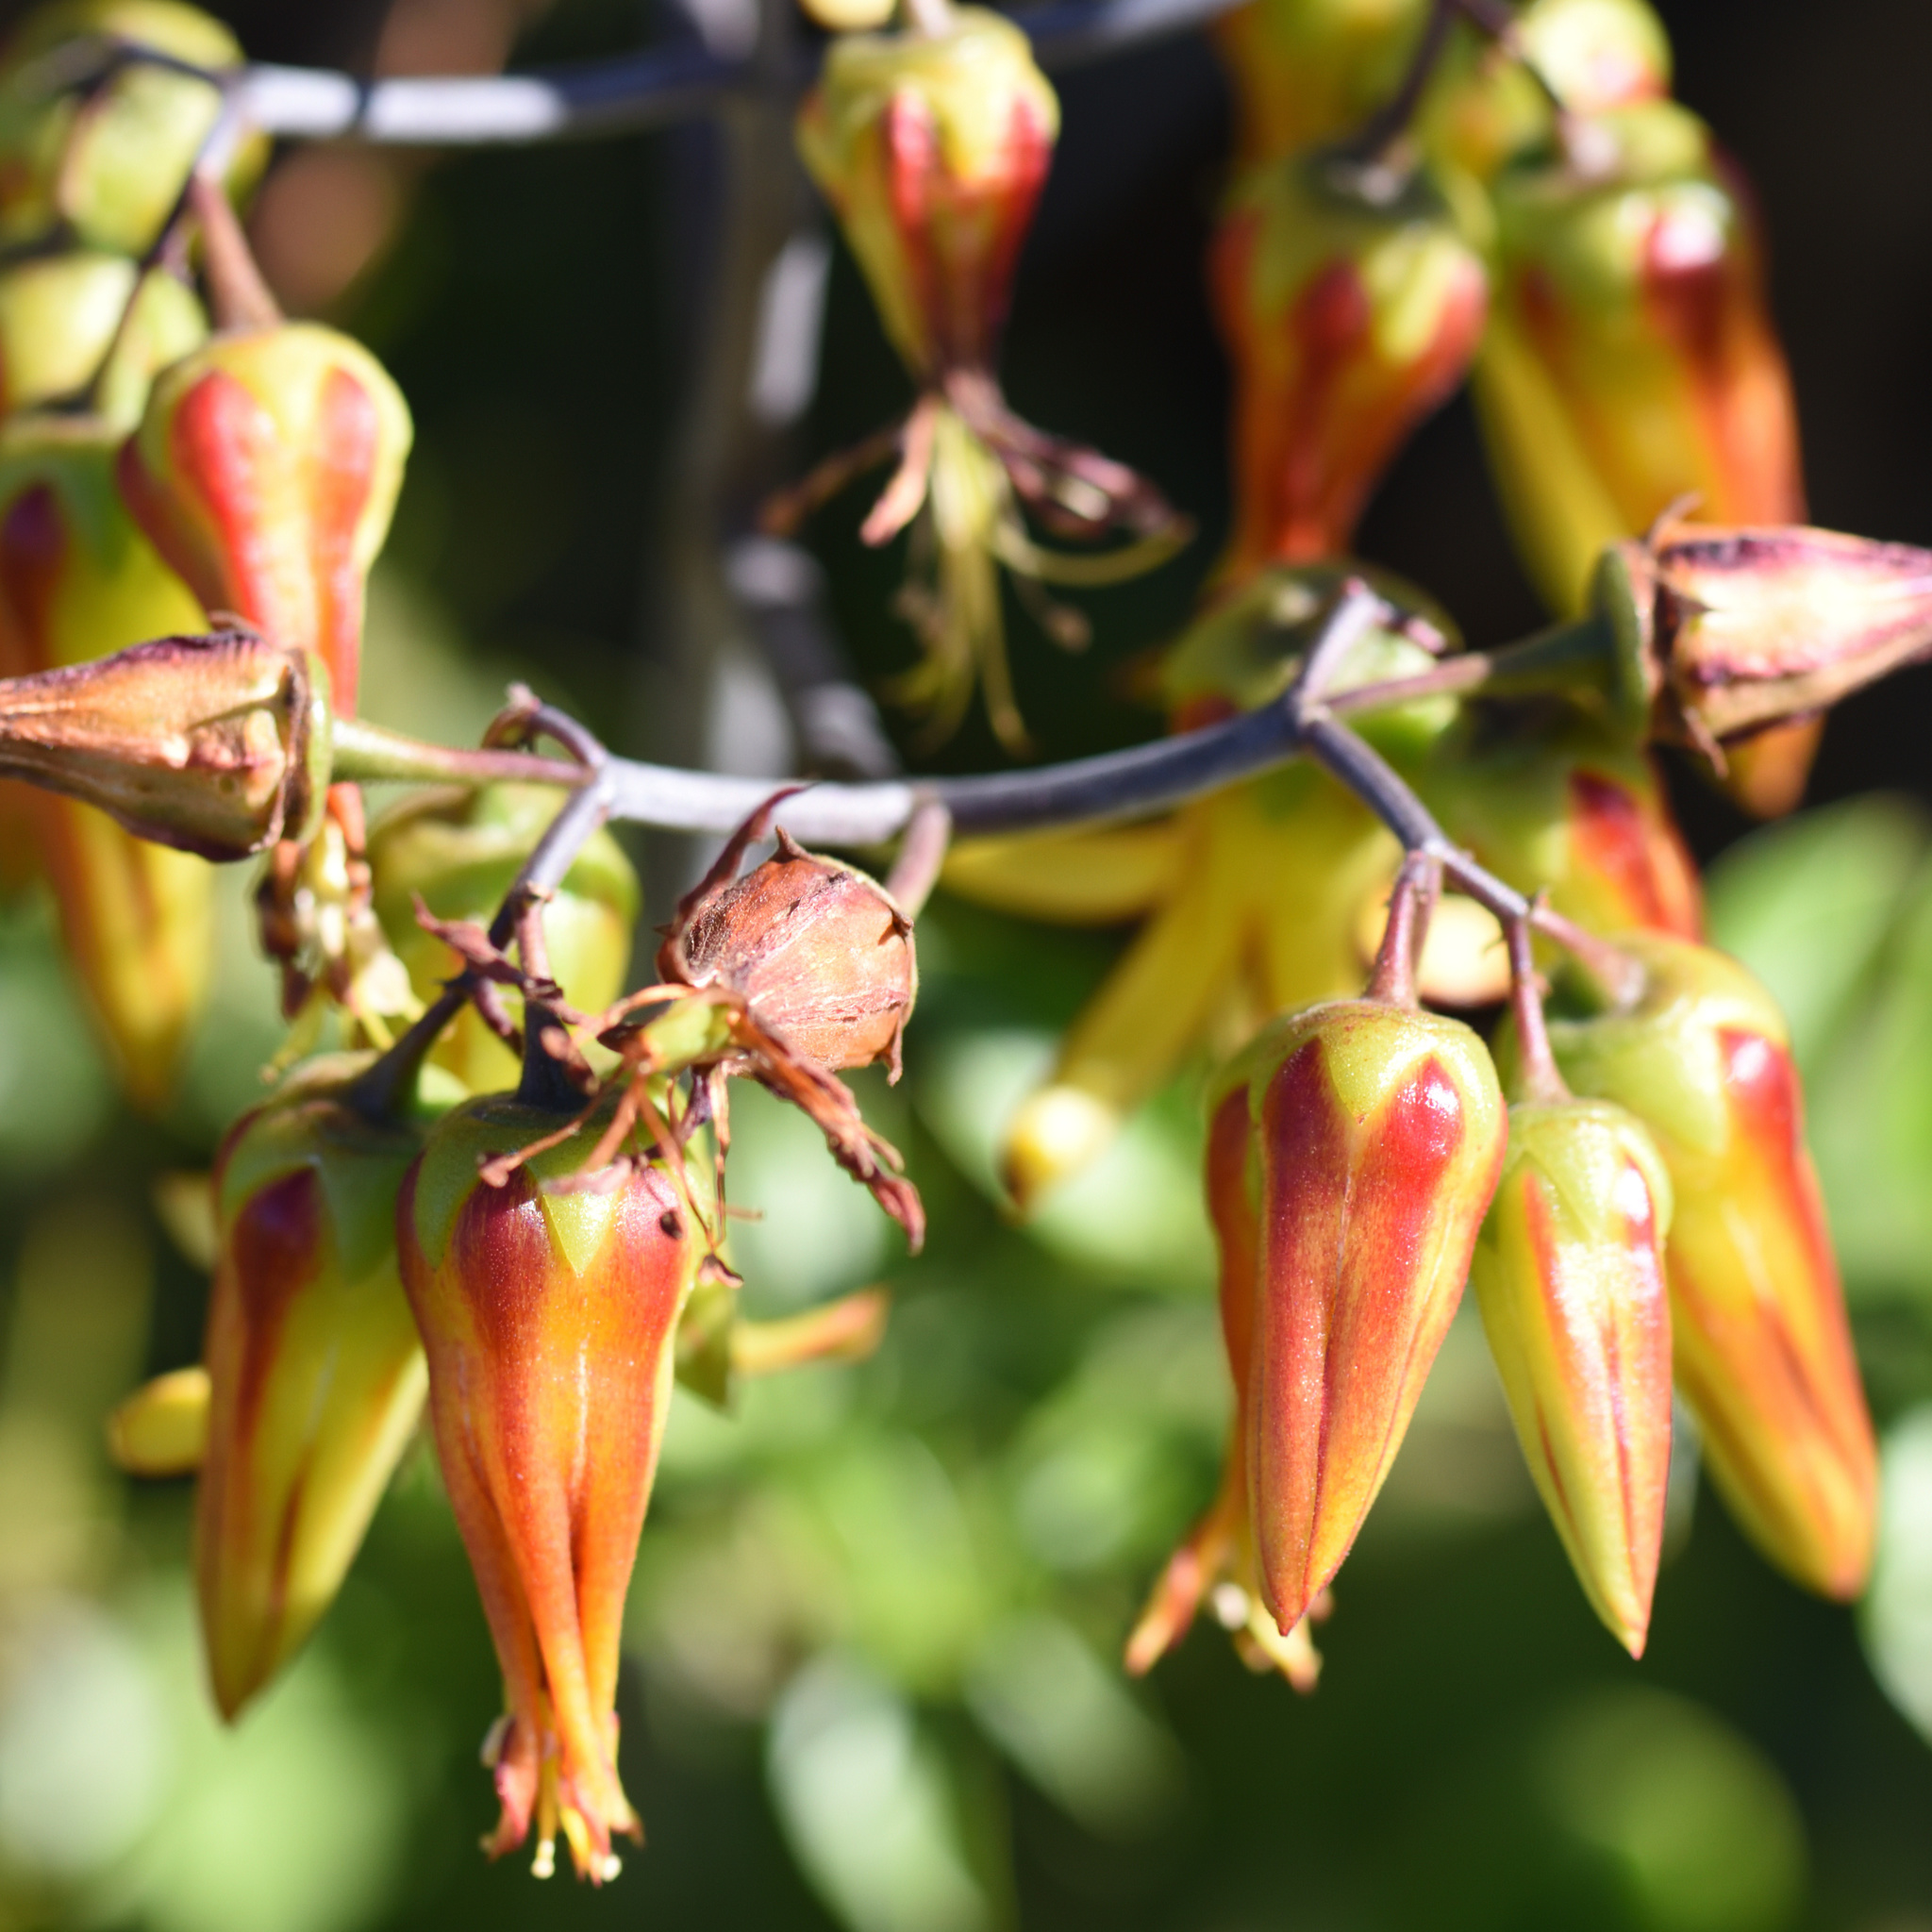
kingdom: Plantae
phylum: Tracheophyta
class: Magnoliopsida
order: Saxifragales
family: Crassulaceae
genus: Cotyledon
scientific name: Cotyledon velutina
